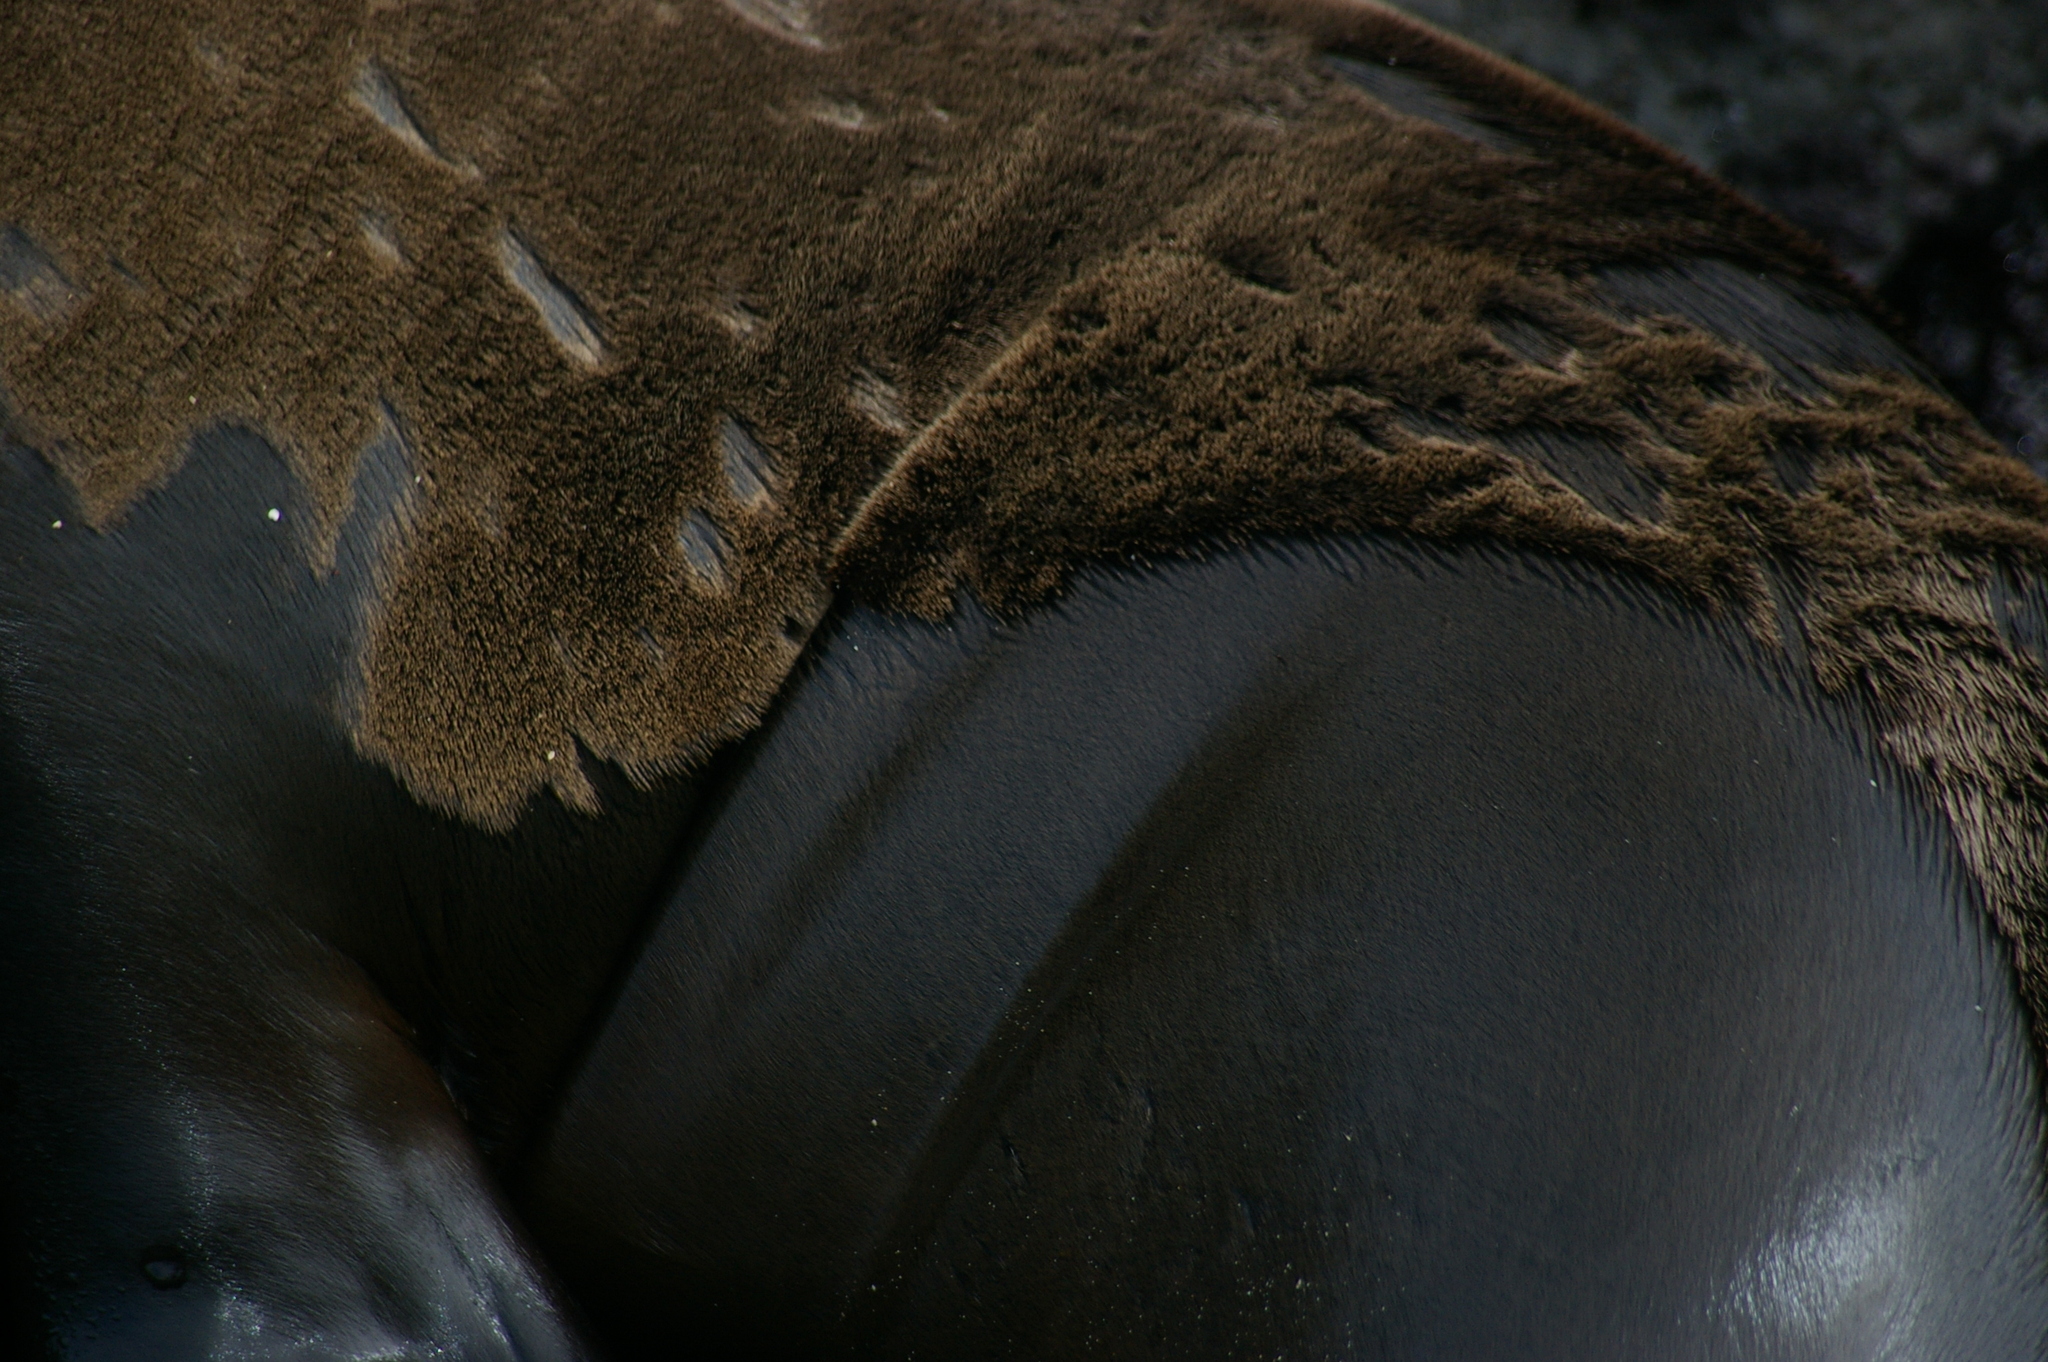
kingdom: Animalia
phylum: Chordata
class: Mammalia
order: Carnivora
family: Otariidae
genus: Zalophus
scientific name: Zalophus wollebaeki
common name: Galapagos sea lion
